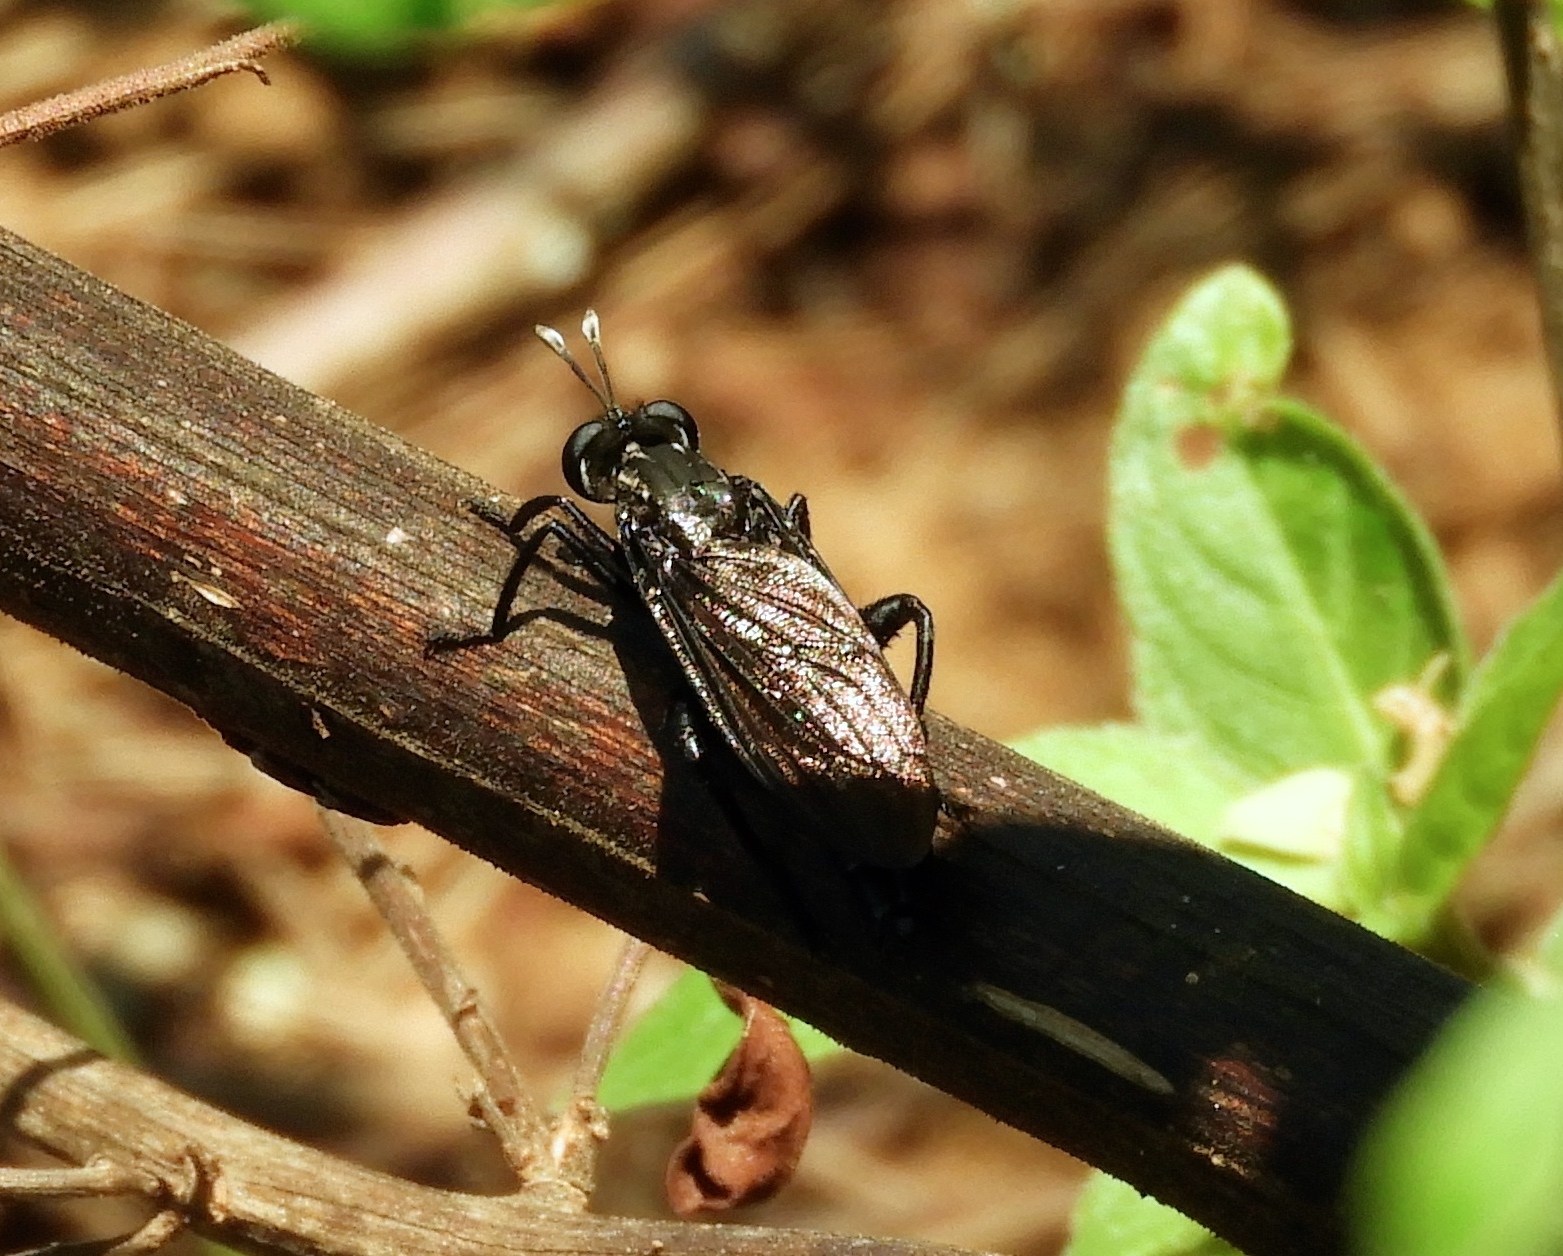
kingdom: Animalia
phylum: Arthropoda
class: Insecta
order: Diptera
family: Mydidae
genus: Stratiomydas
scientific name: Stratiomydas
